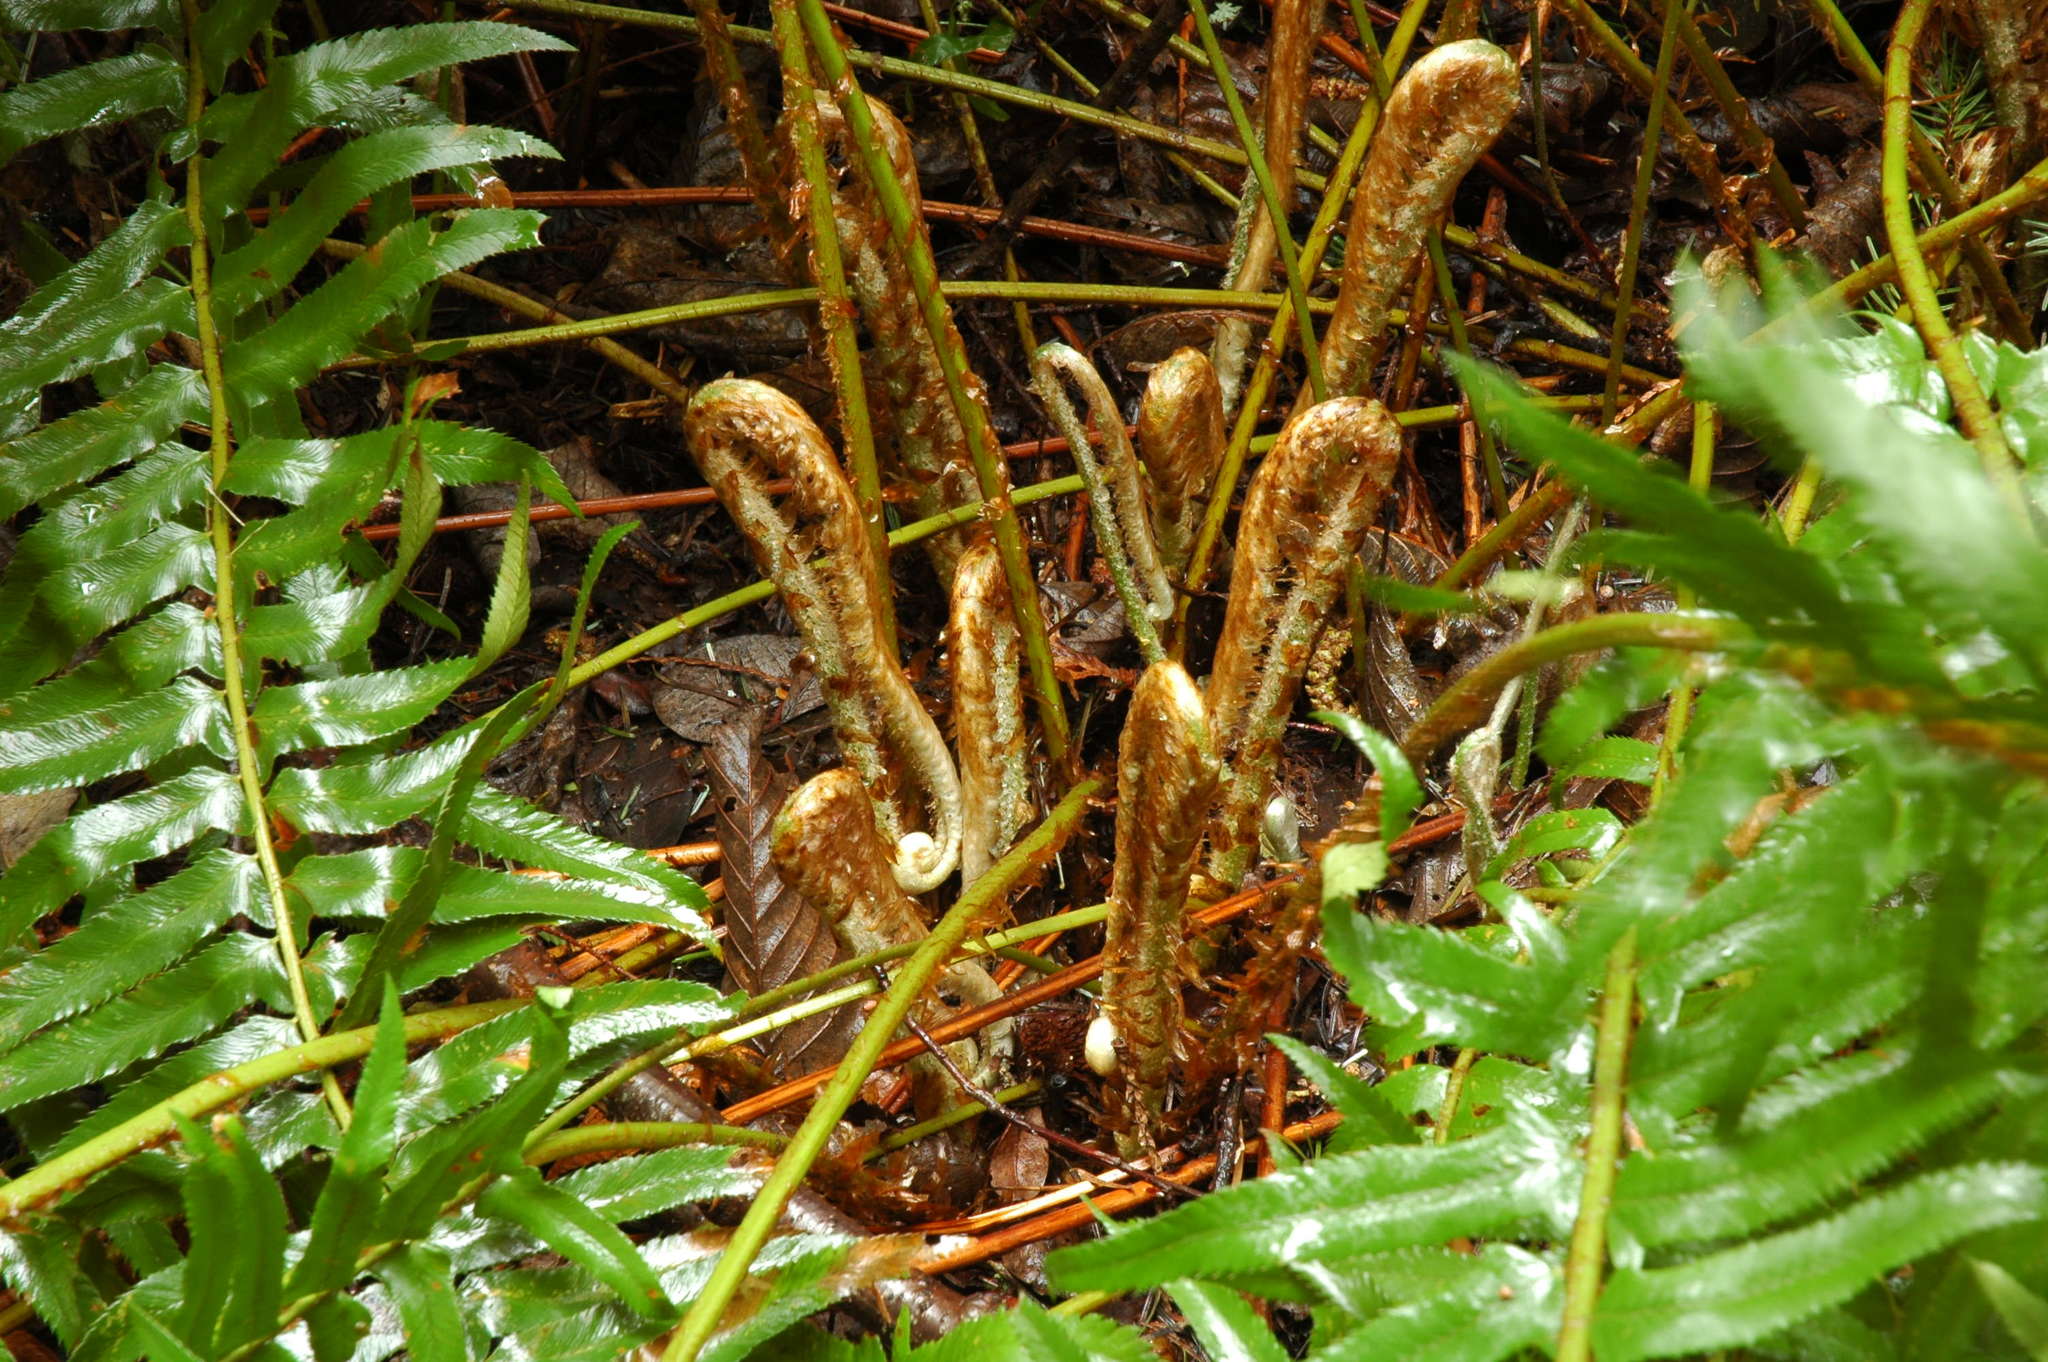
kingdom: Plantae
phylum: Tracheophyta
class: Polypodiopsida
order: Polypodiales
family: Dryopteridaceae
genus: Polystichum
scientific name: Polystichum munitum
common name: Western sword-fern
